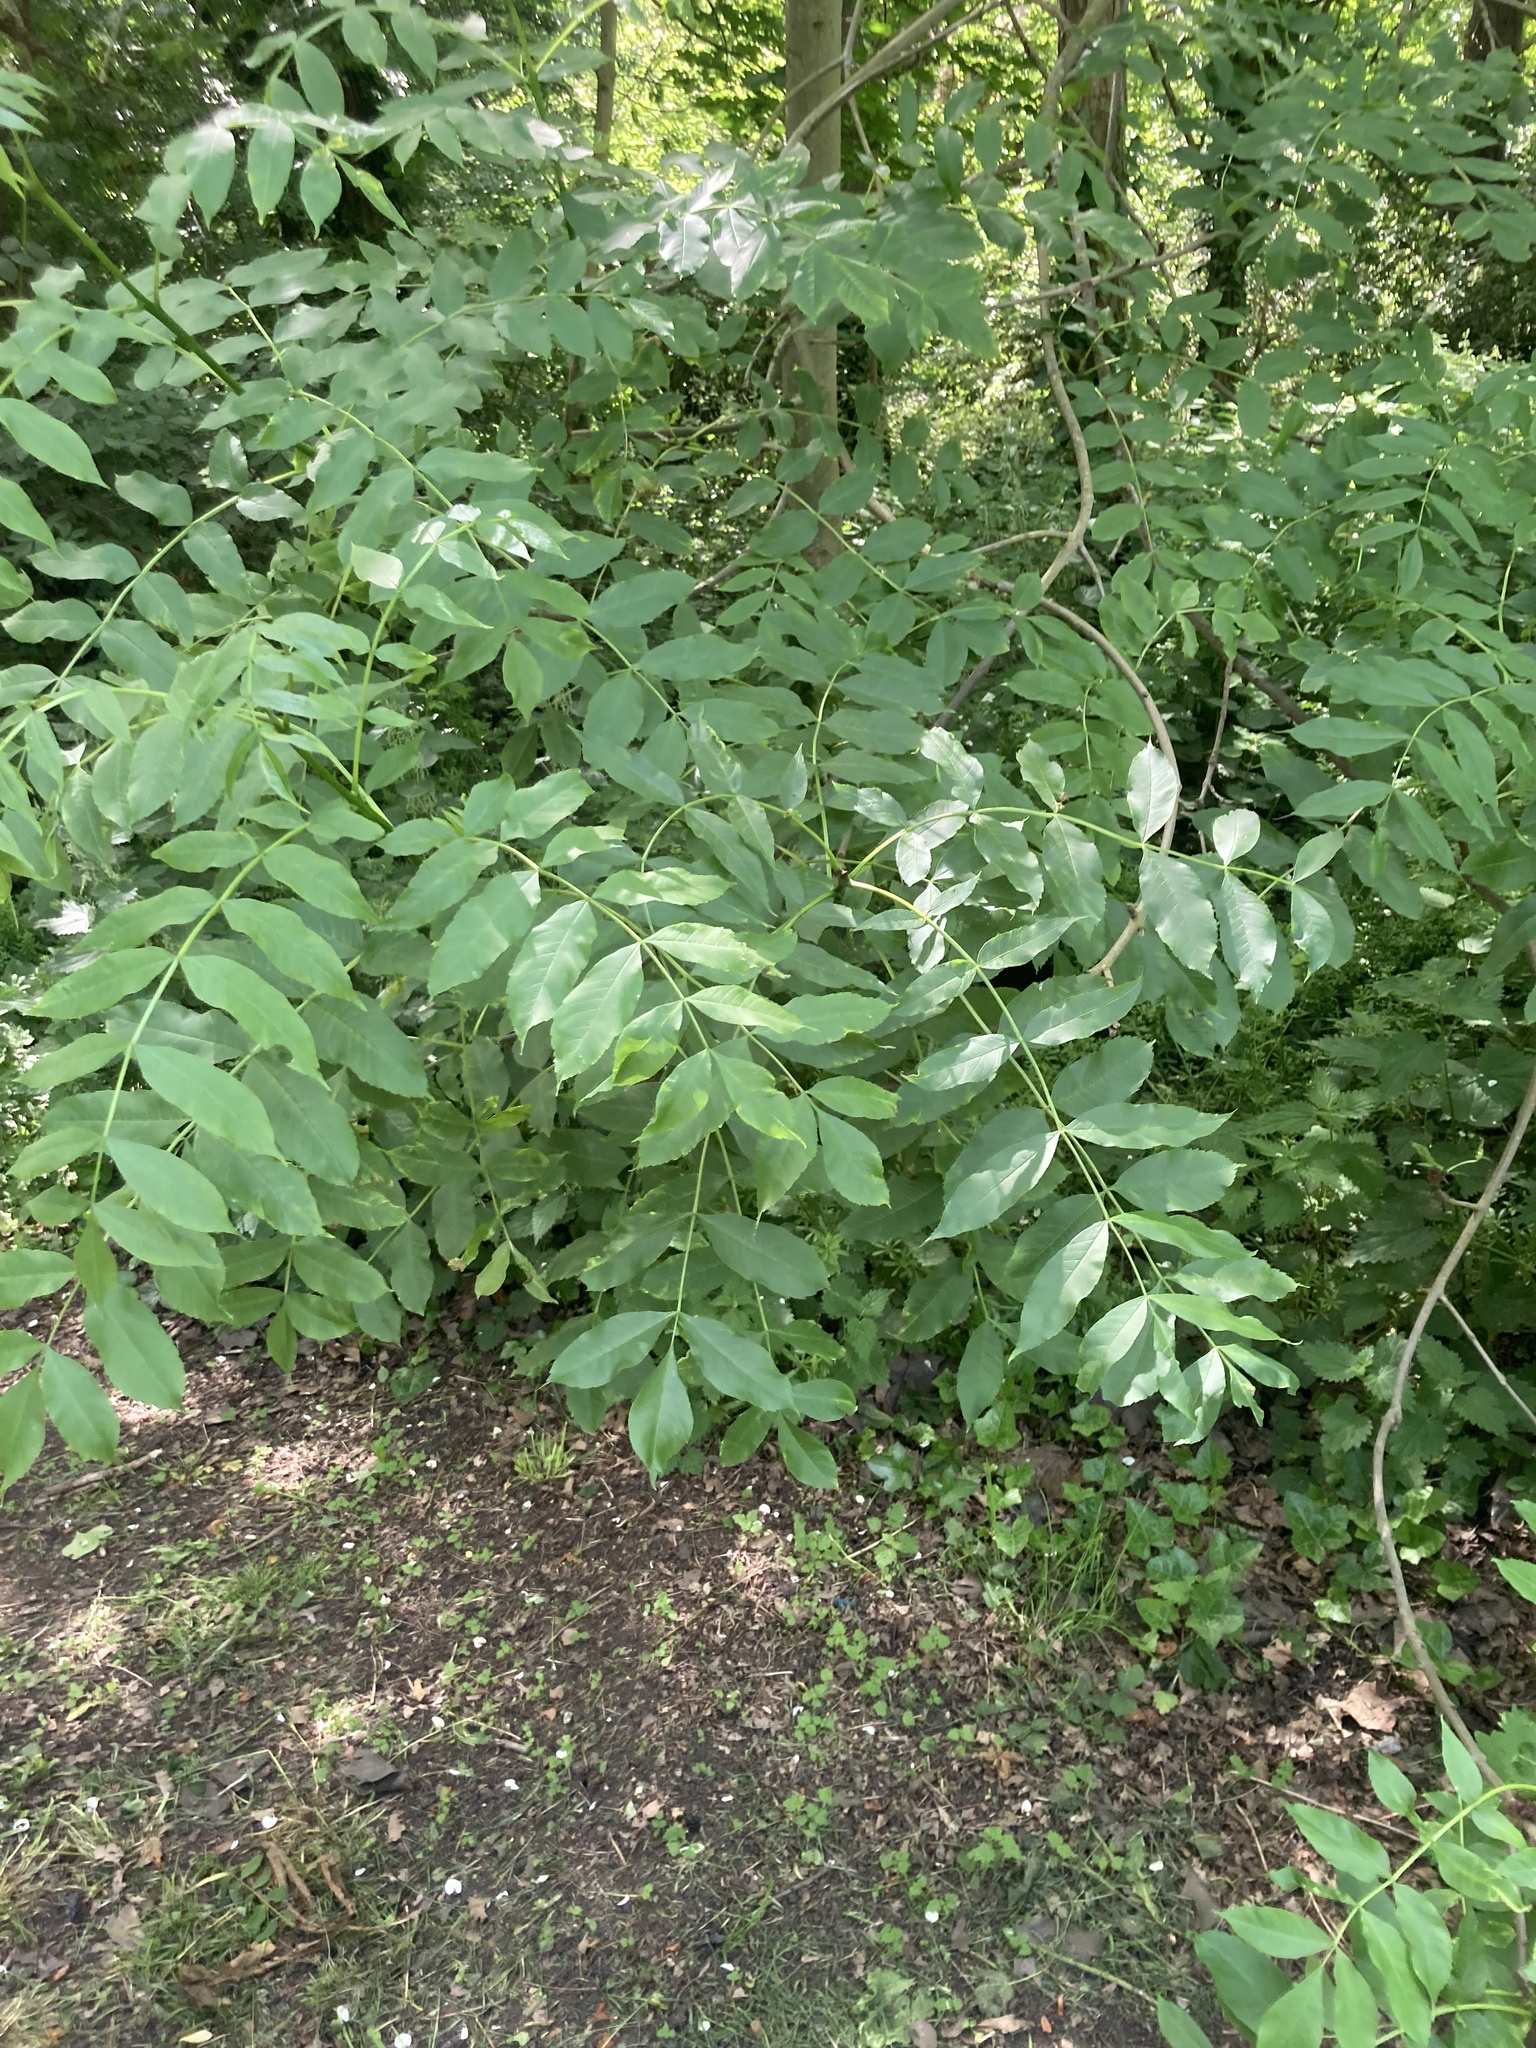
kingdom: Plantae
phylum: Tracheophyta
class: Magnoliopsida
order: Lamiales
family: Oleaceae
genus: Fraxinus
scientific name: Fraxinus excelsior
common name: European ash
